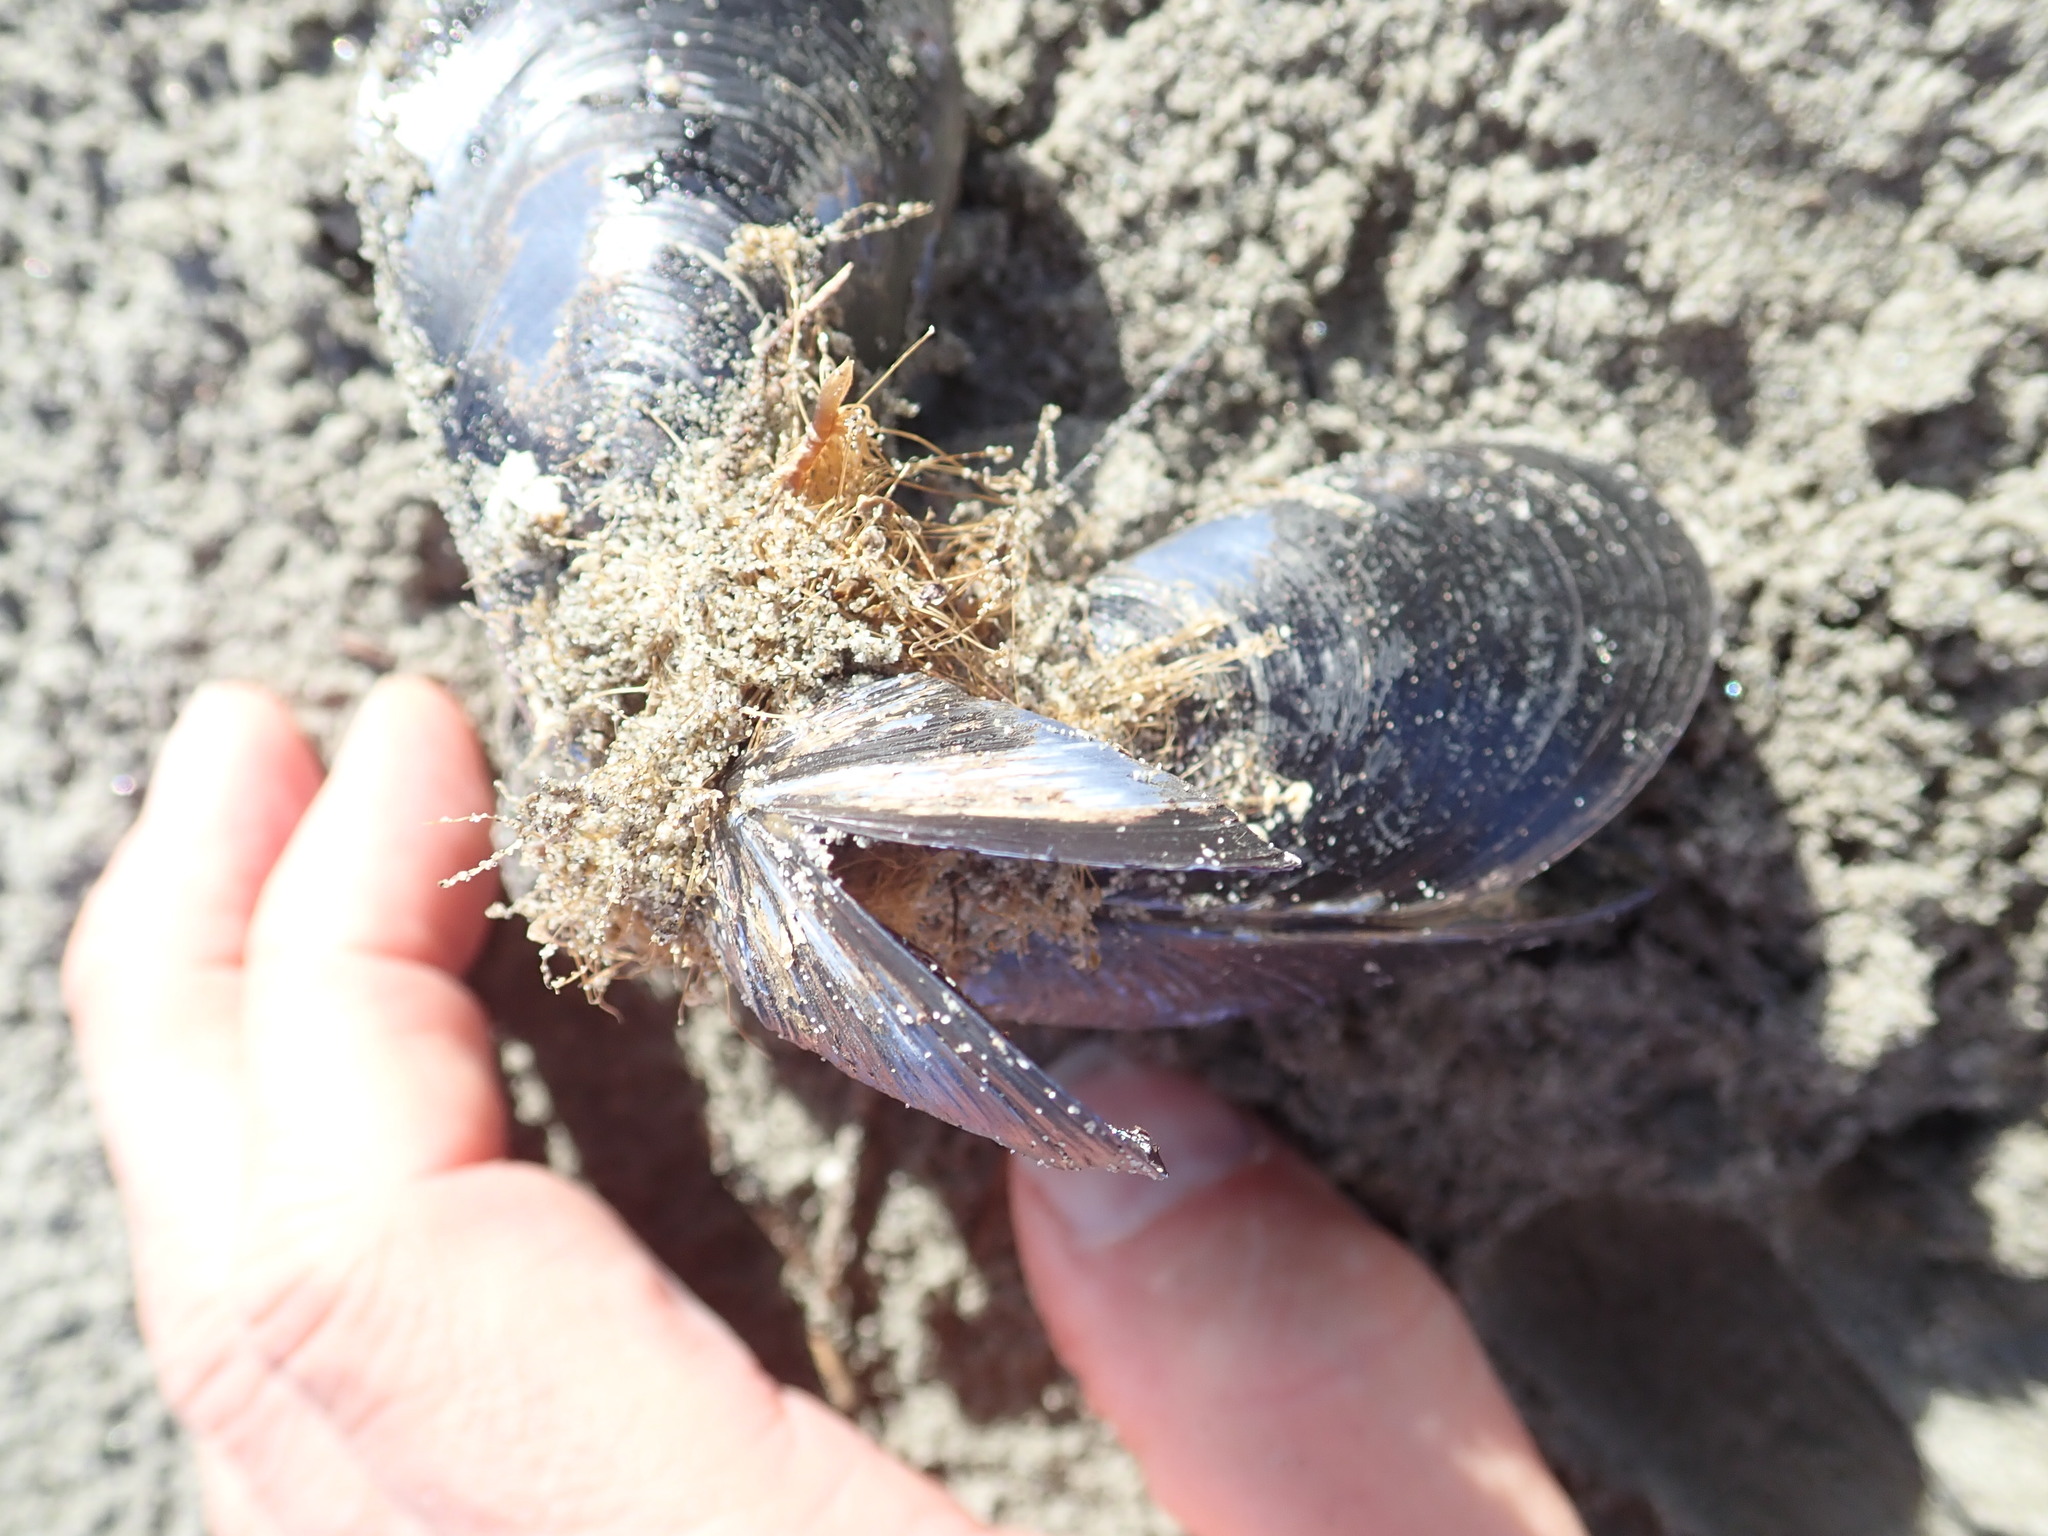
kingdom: Animalia
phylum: Mollusca
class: Bivalvia
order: Mytilida
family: Mytilidae
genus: Mytilus
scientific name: Mytilus planulatus
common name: Australian mussel
